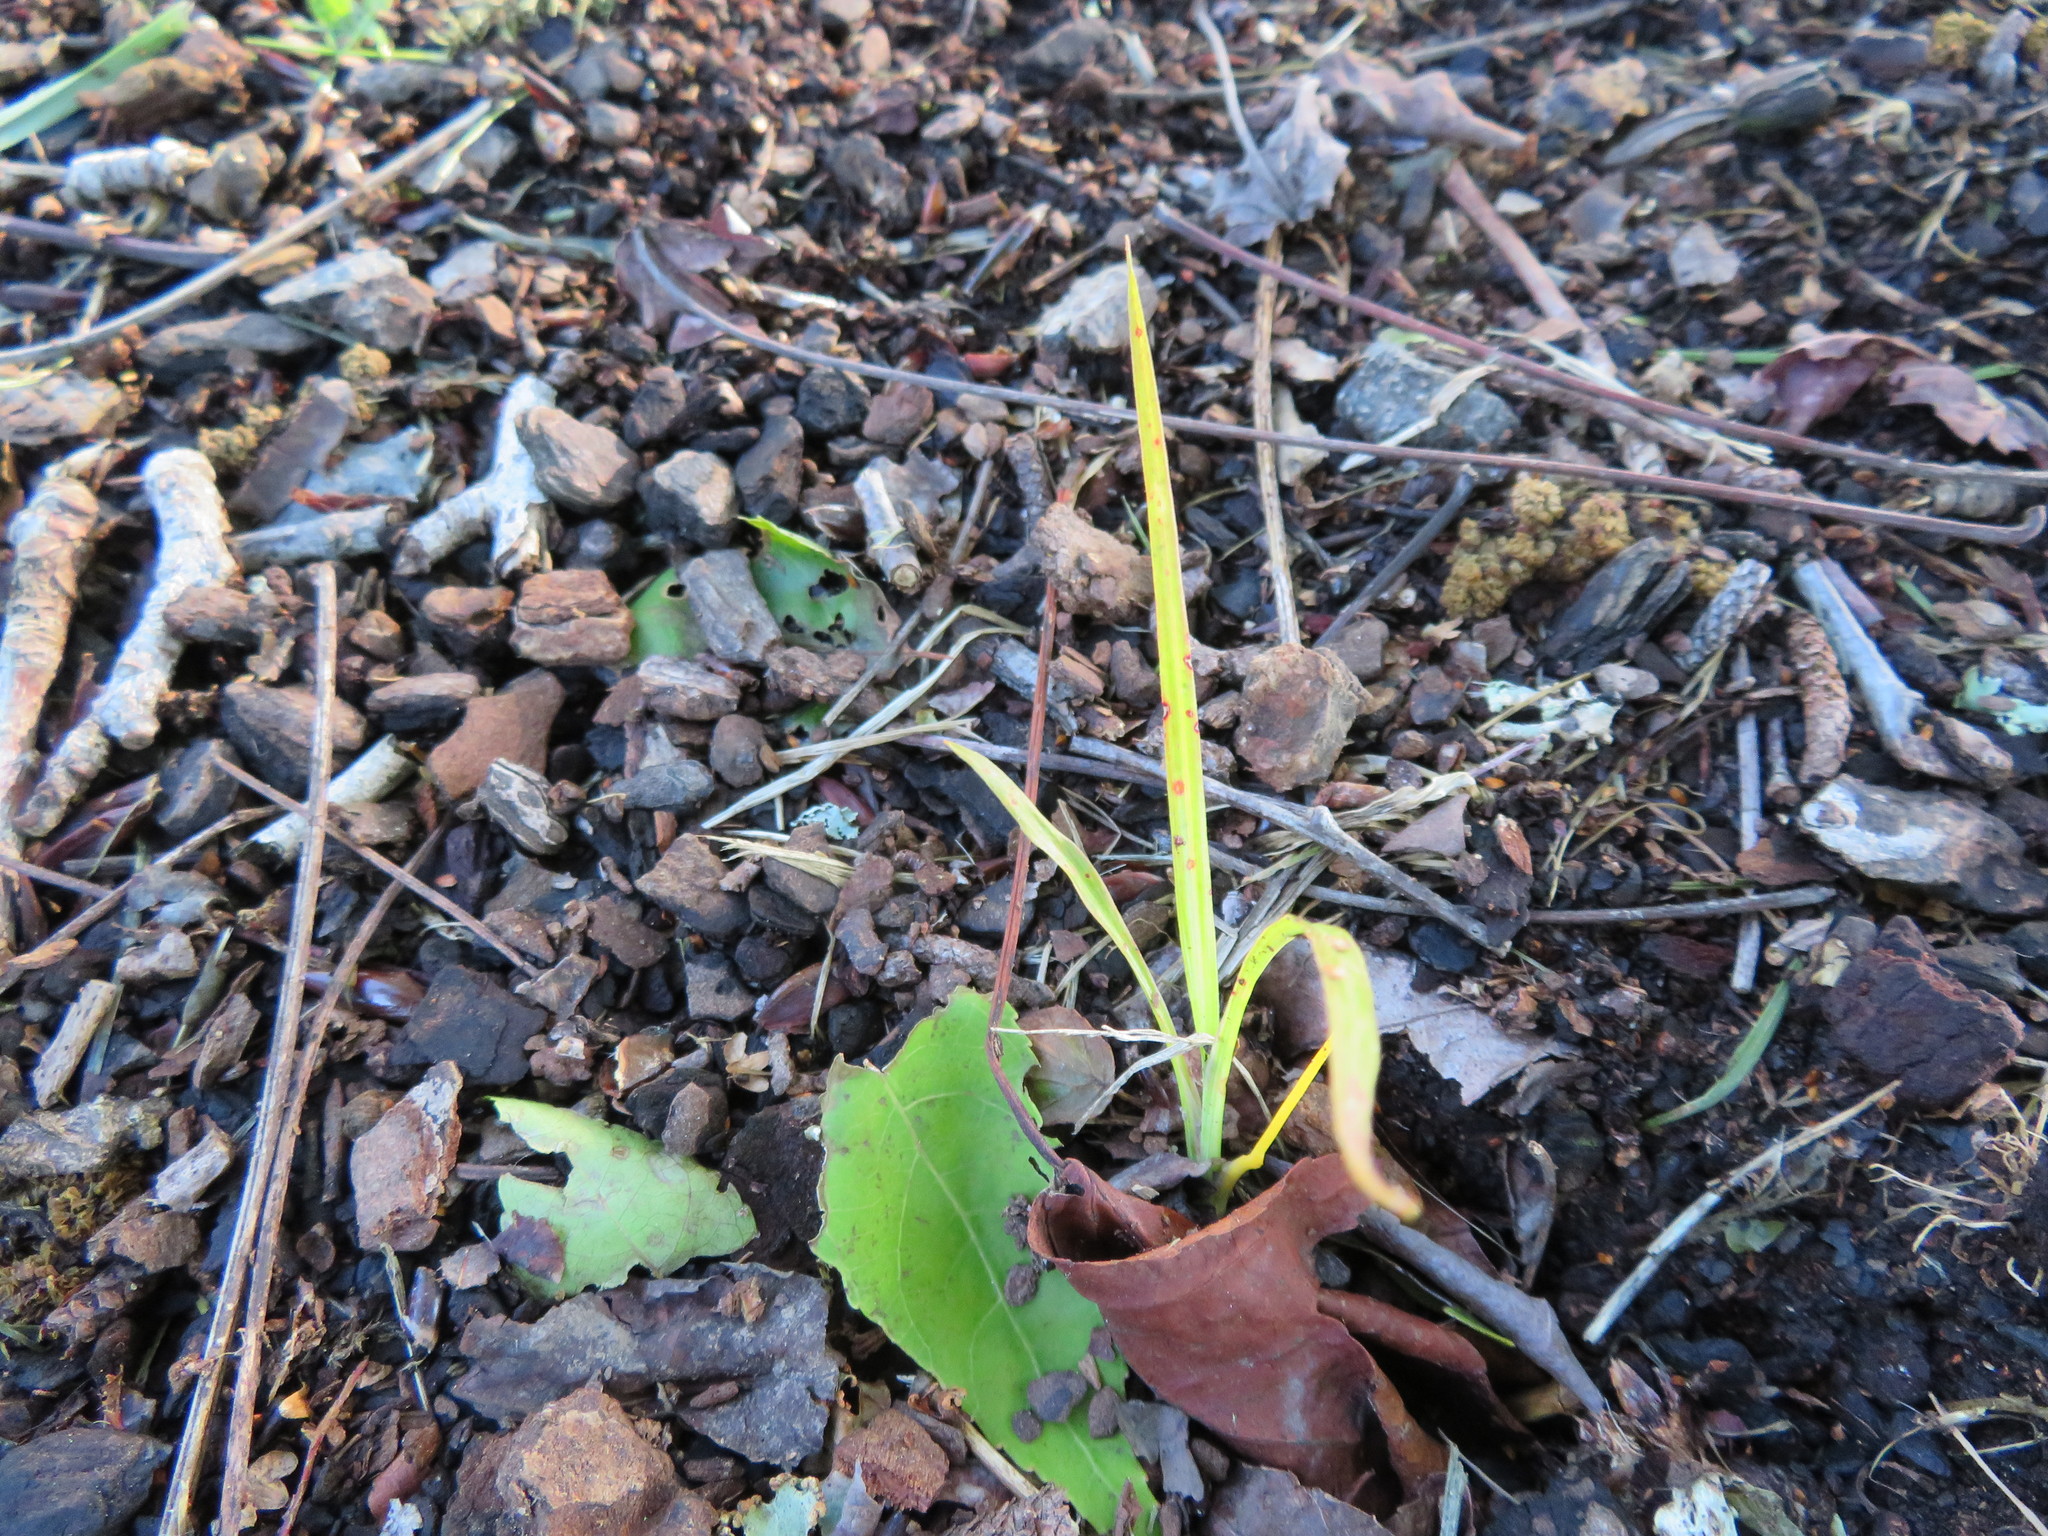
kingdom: Plantae
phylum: Tracheophyta
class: Liliopsida
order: Asparagales
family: Asparagaceae
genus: Cordyline
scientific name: Cordyline australis
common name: Cabbage-palm
